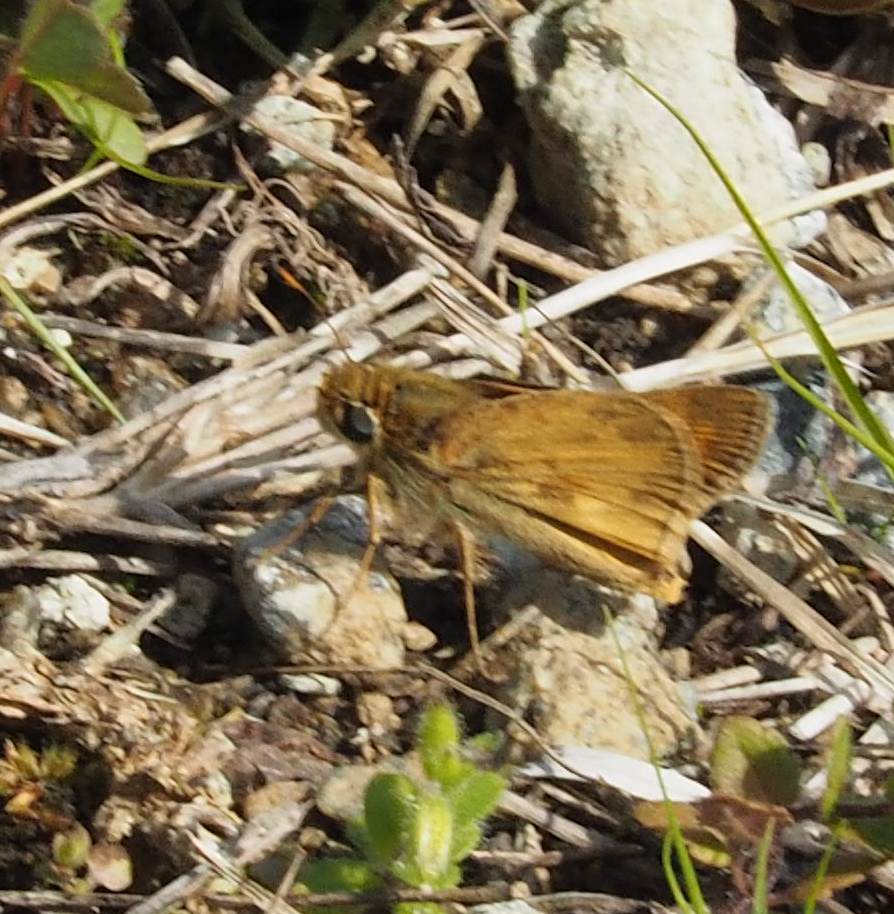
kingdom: Animalia
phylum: Arthropoda
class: Insecta
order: Lepidoptera
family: Hesperiidae
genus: Atalopedes
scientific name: Atalopedes
